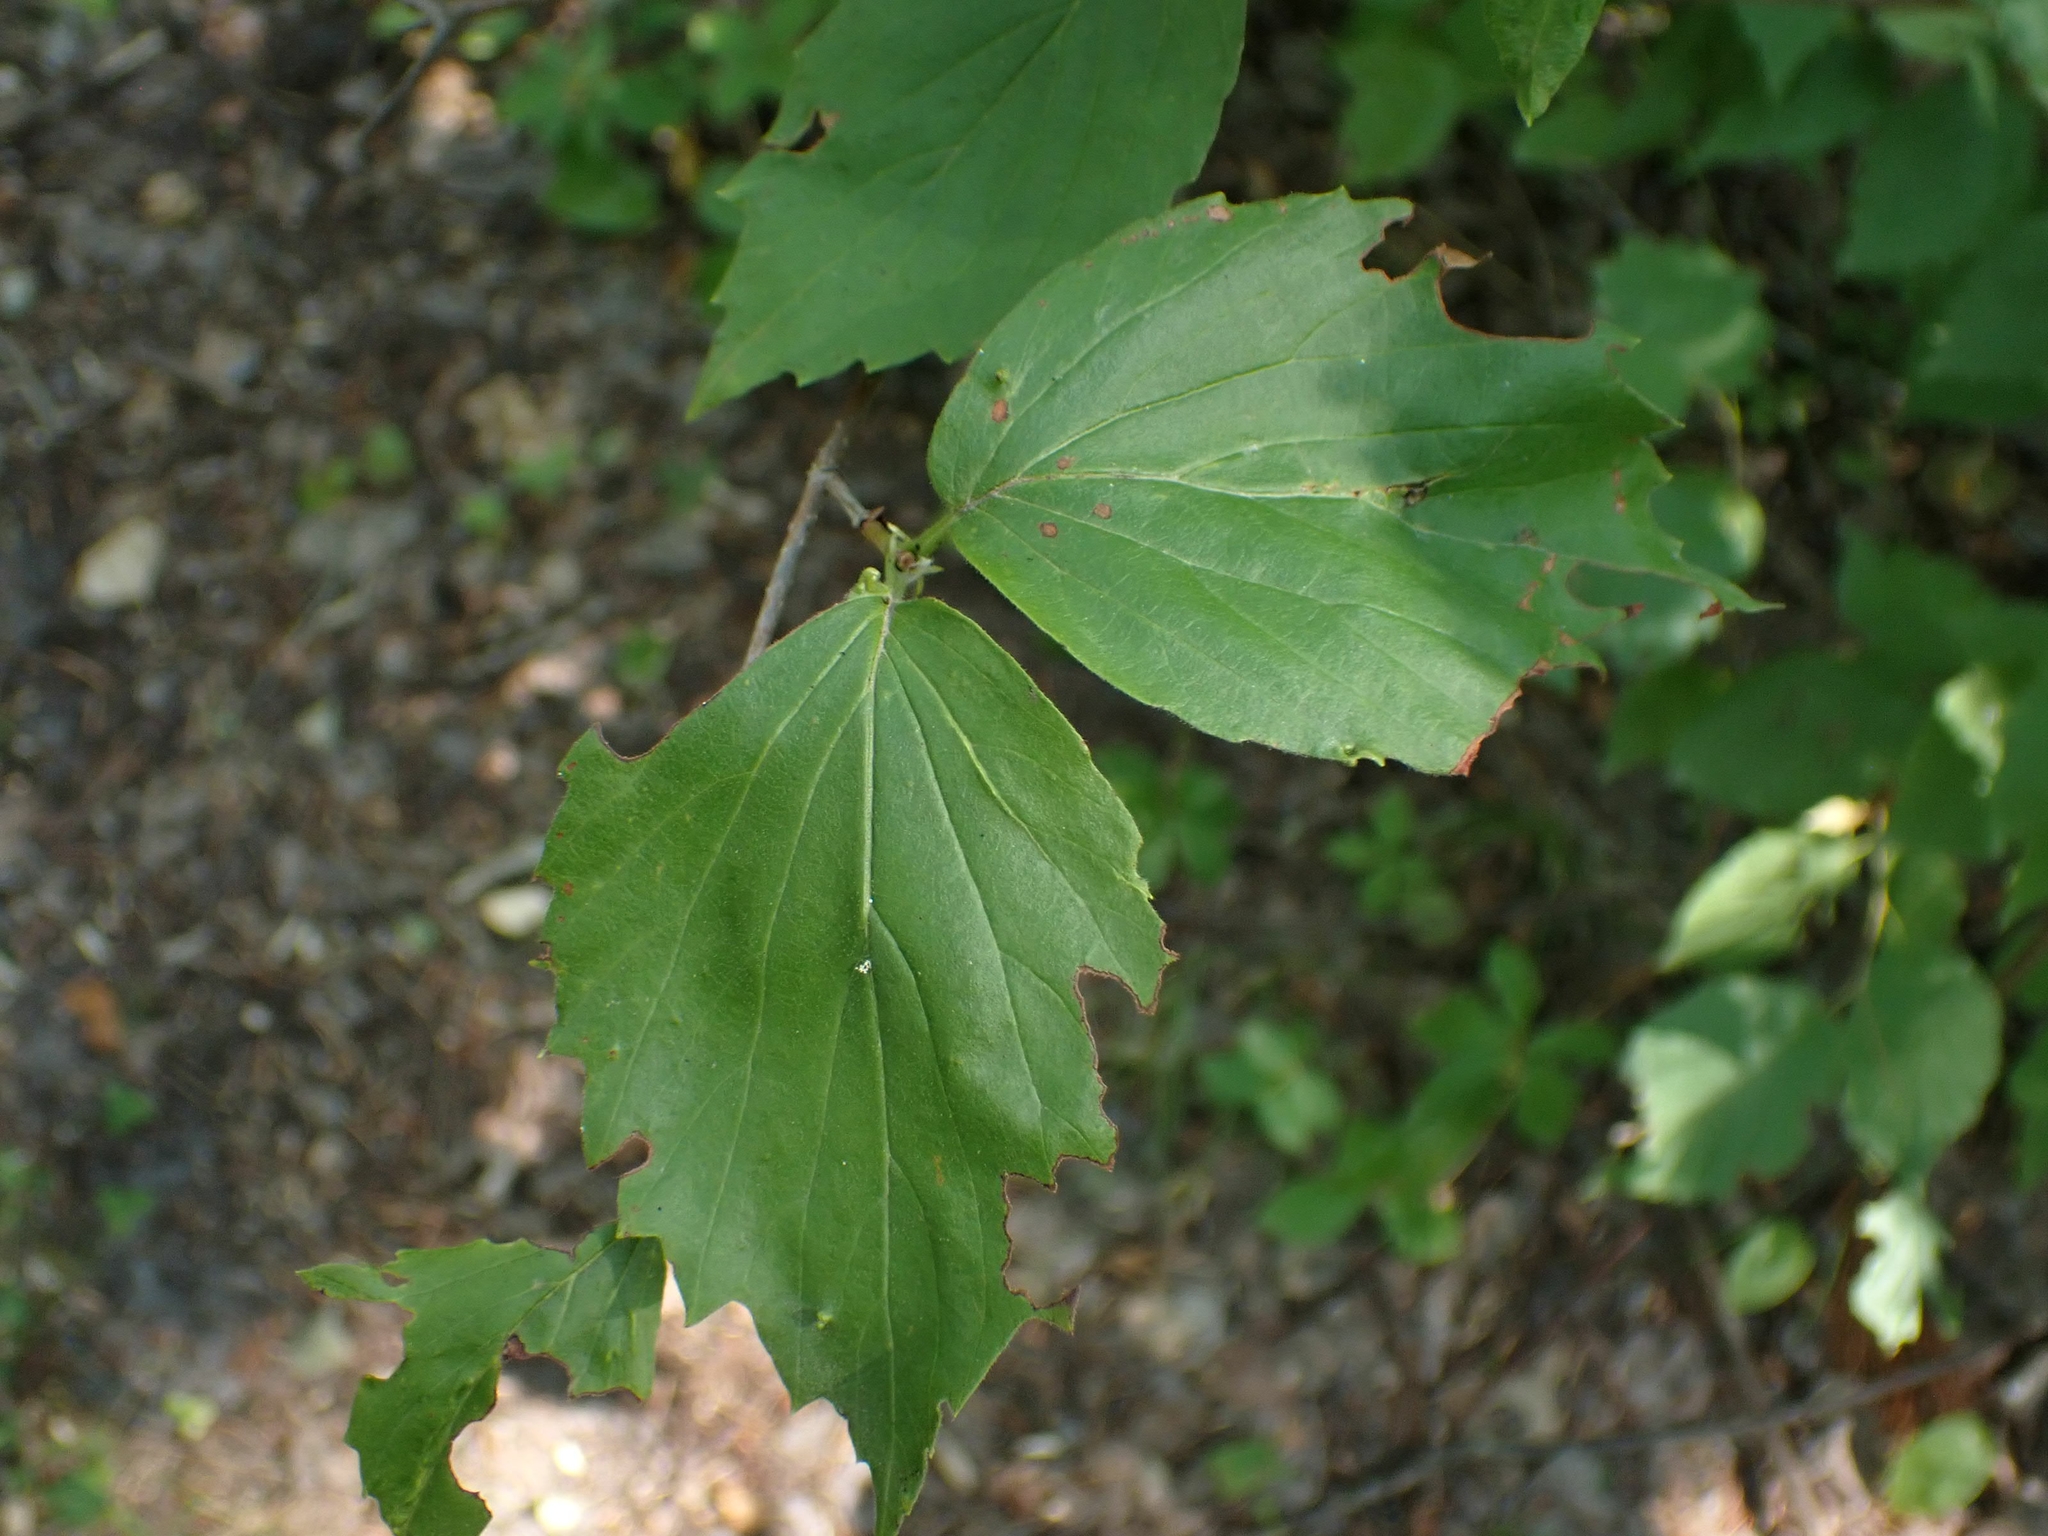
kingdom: Plantae
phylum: Tracheophyta
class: Magnoliopsida
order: Dipsacales
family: Viburnaceae
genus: Viburnum
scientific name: Viburnum rafinesqueanum
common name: Downy arrow-wood
